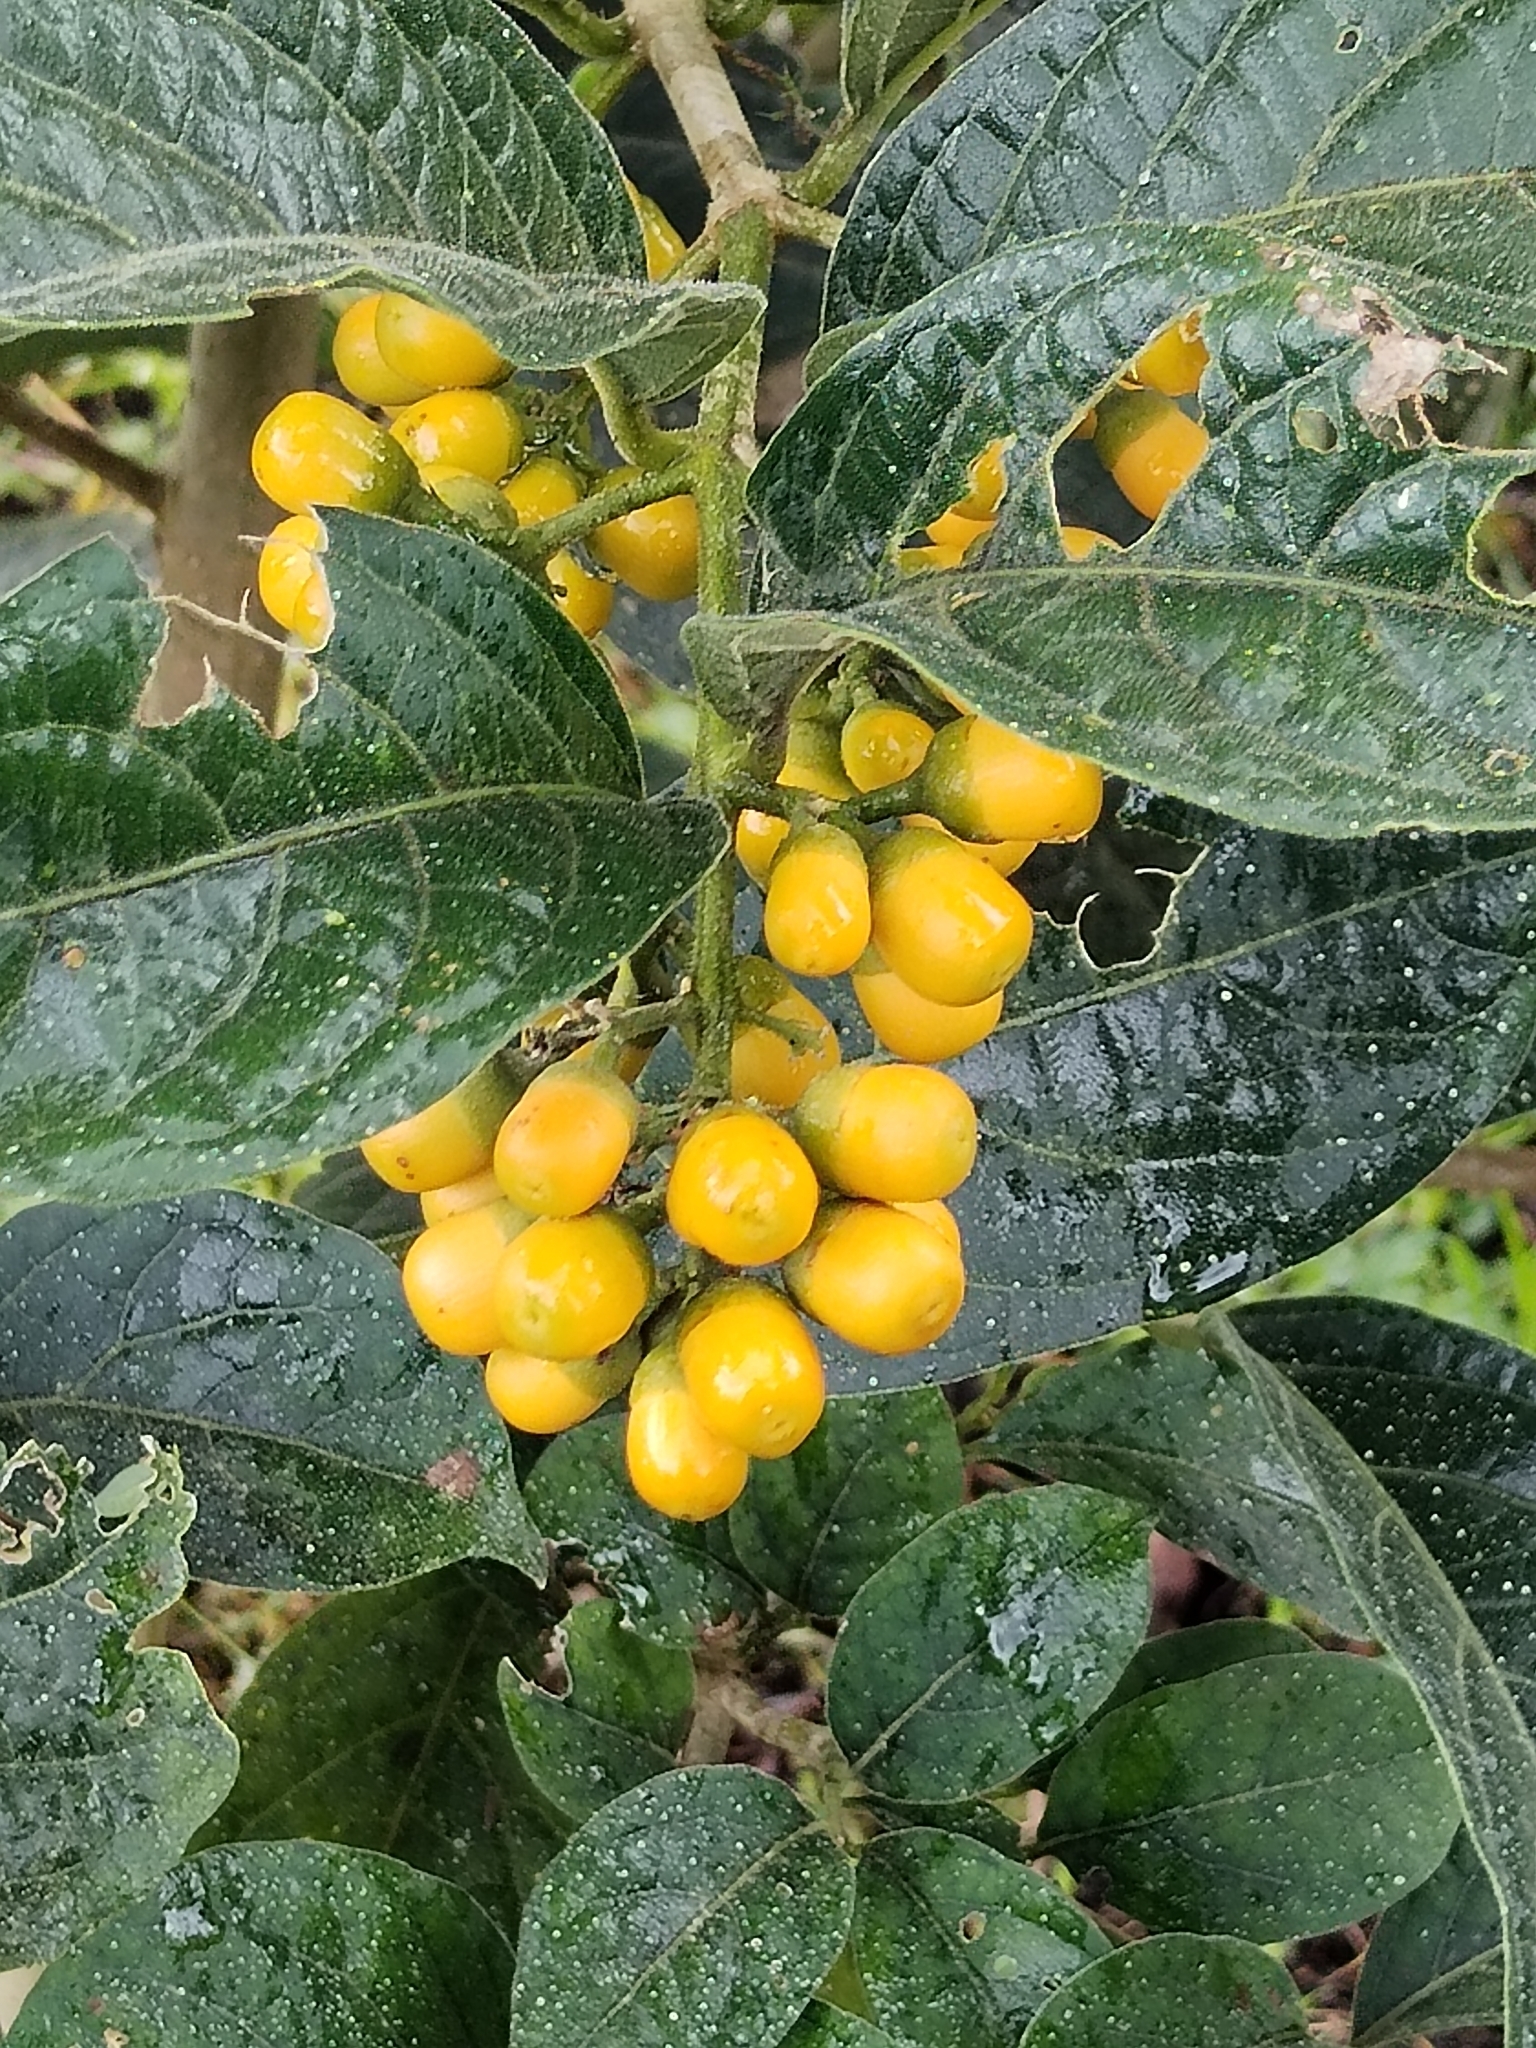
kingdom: Plantae
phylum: Tracheophyta
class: Magnoliopsida
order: Malpighiales
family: Salicaceae
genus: Casearia
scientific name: Casearia corymbosa
